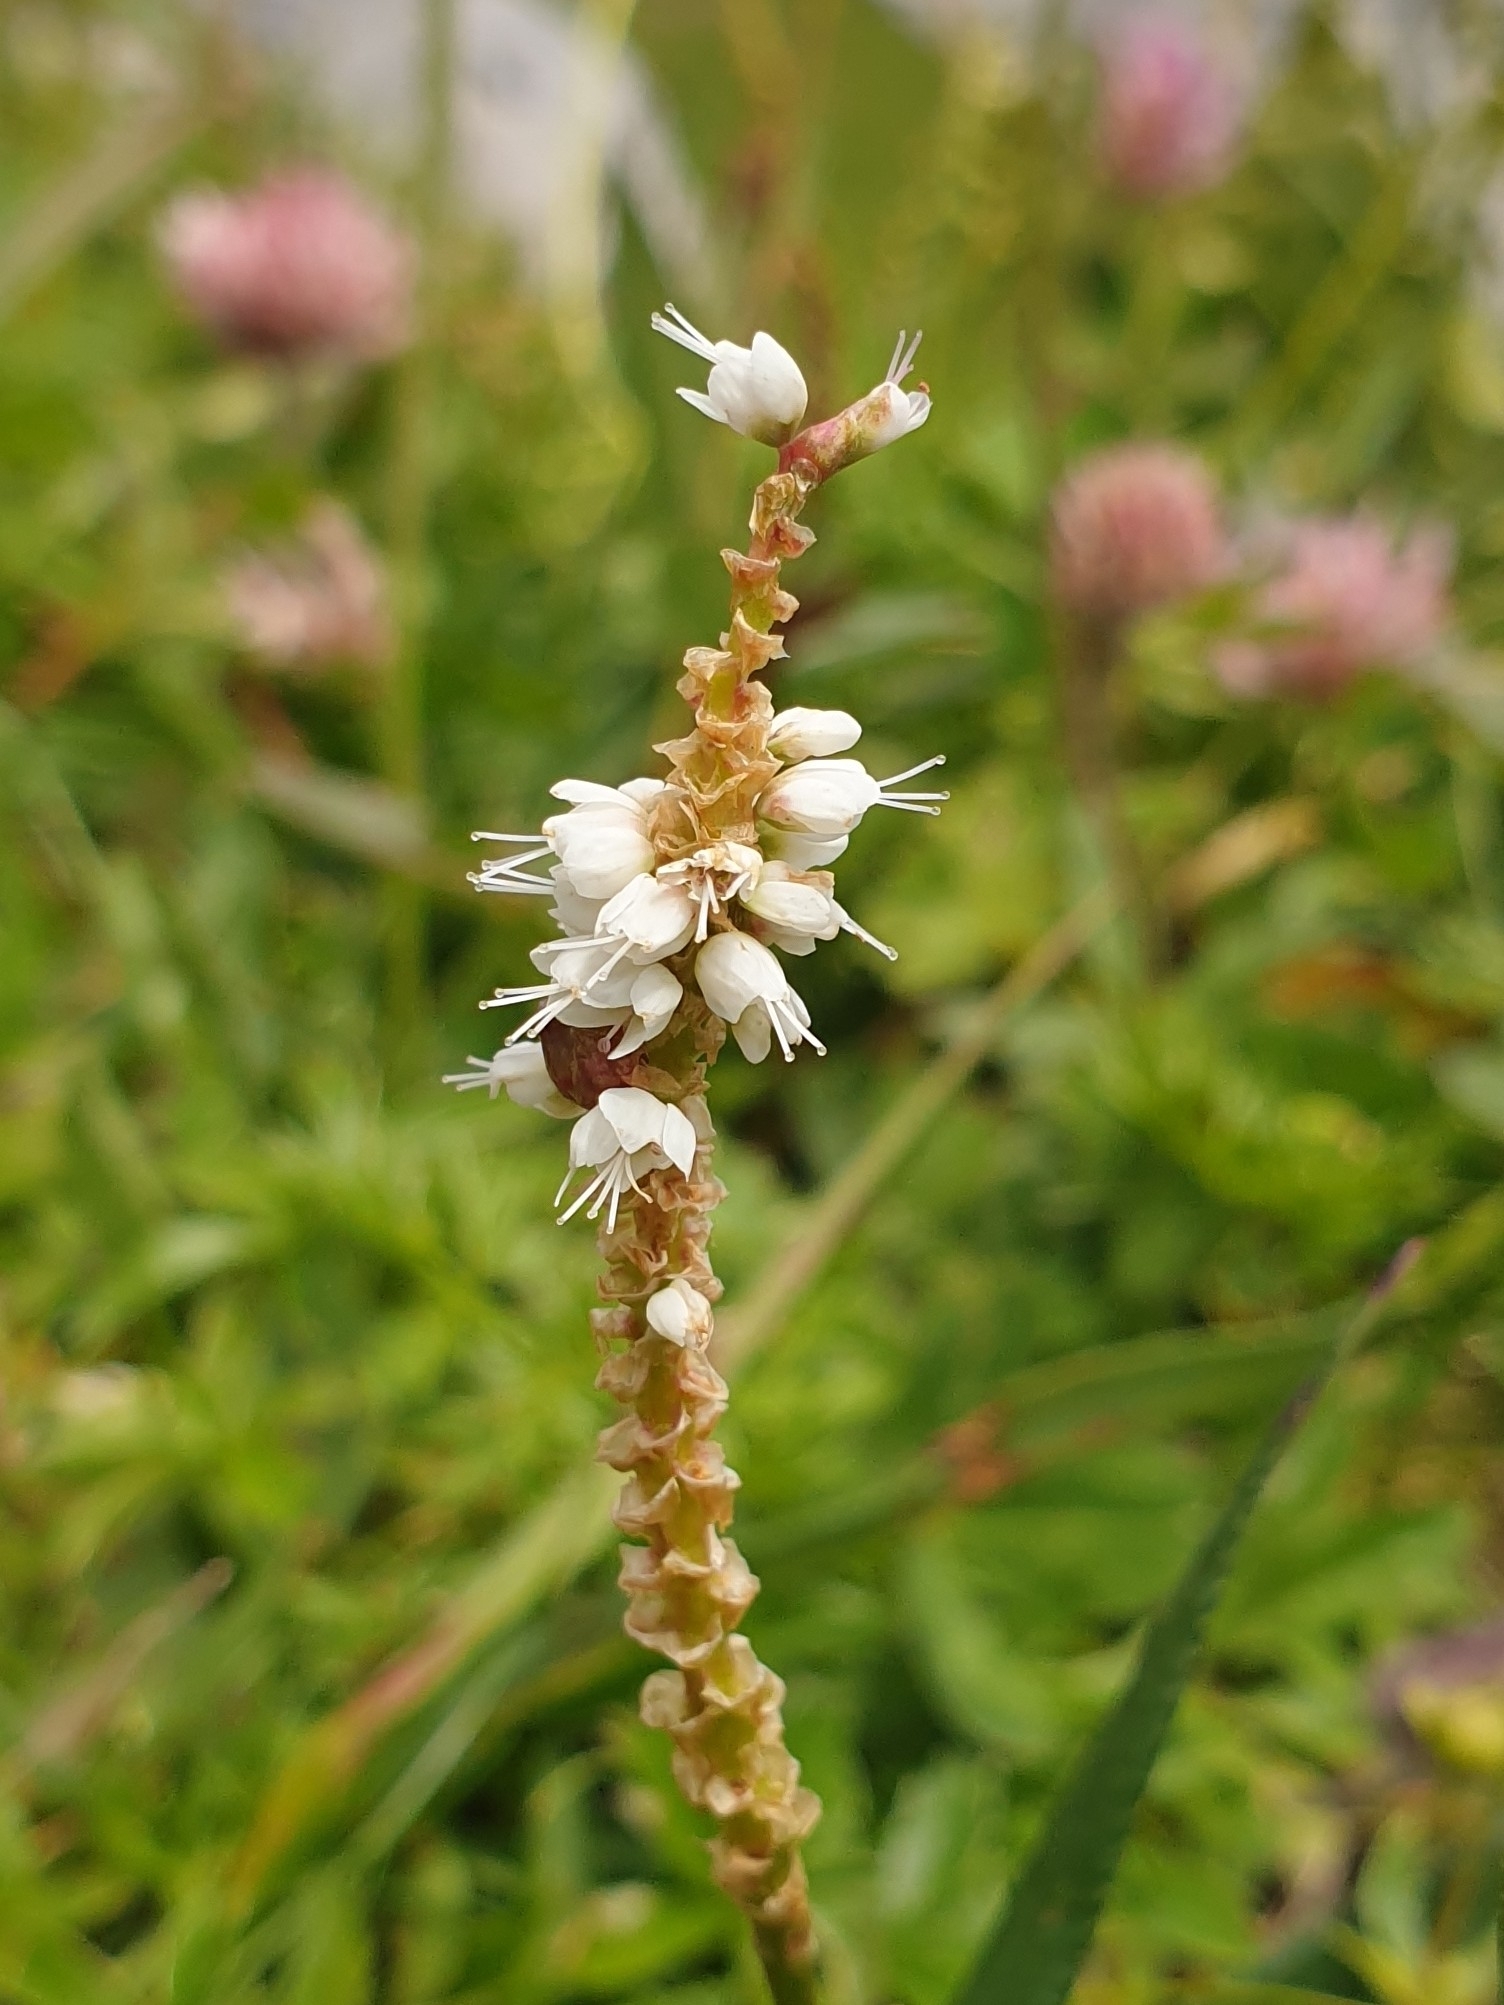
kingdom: Plantae
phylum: Tracheophyta
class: Magnoliopsida
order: Caryophyllales
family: Polygonaceae
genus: Bistorta
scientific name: Bistorta vivipara
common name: Alpine bistort
